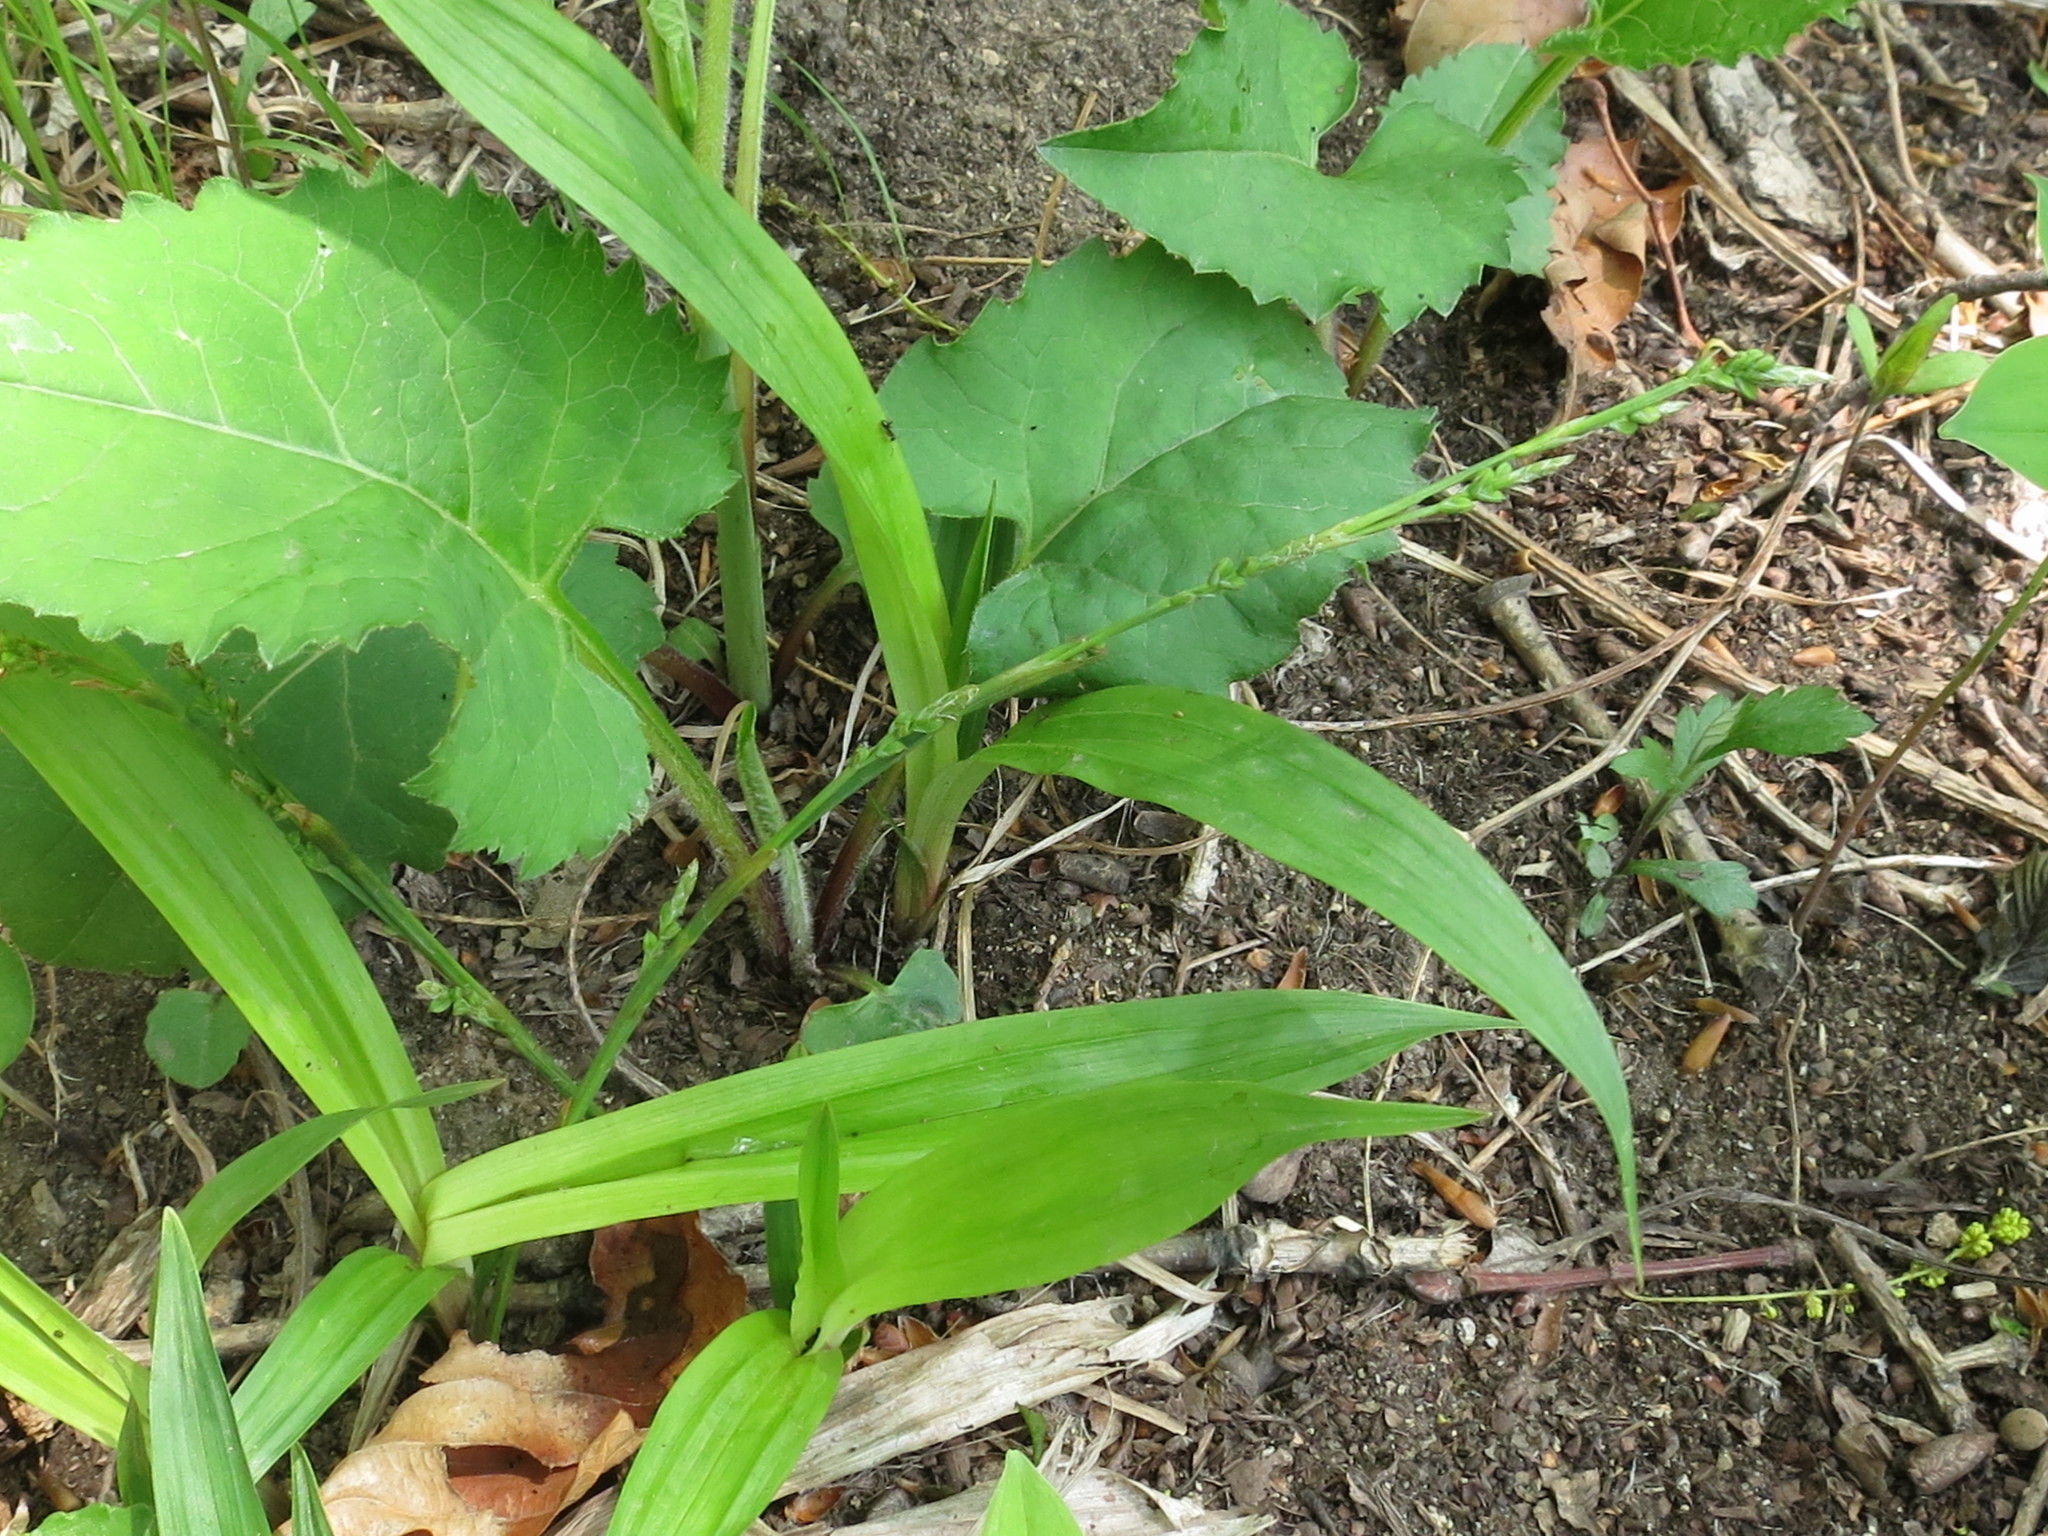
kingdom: Plantae
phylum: Tracheophyta
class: Liliopsida
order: Poales
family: Cyperaceae
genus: Carex
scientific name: Carex siderosticta
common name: Broadleaf sedge
